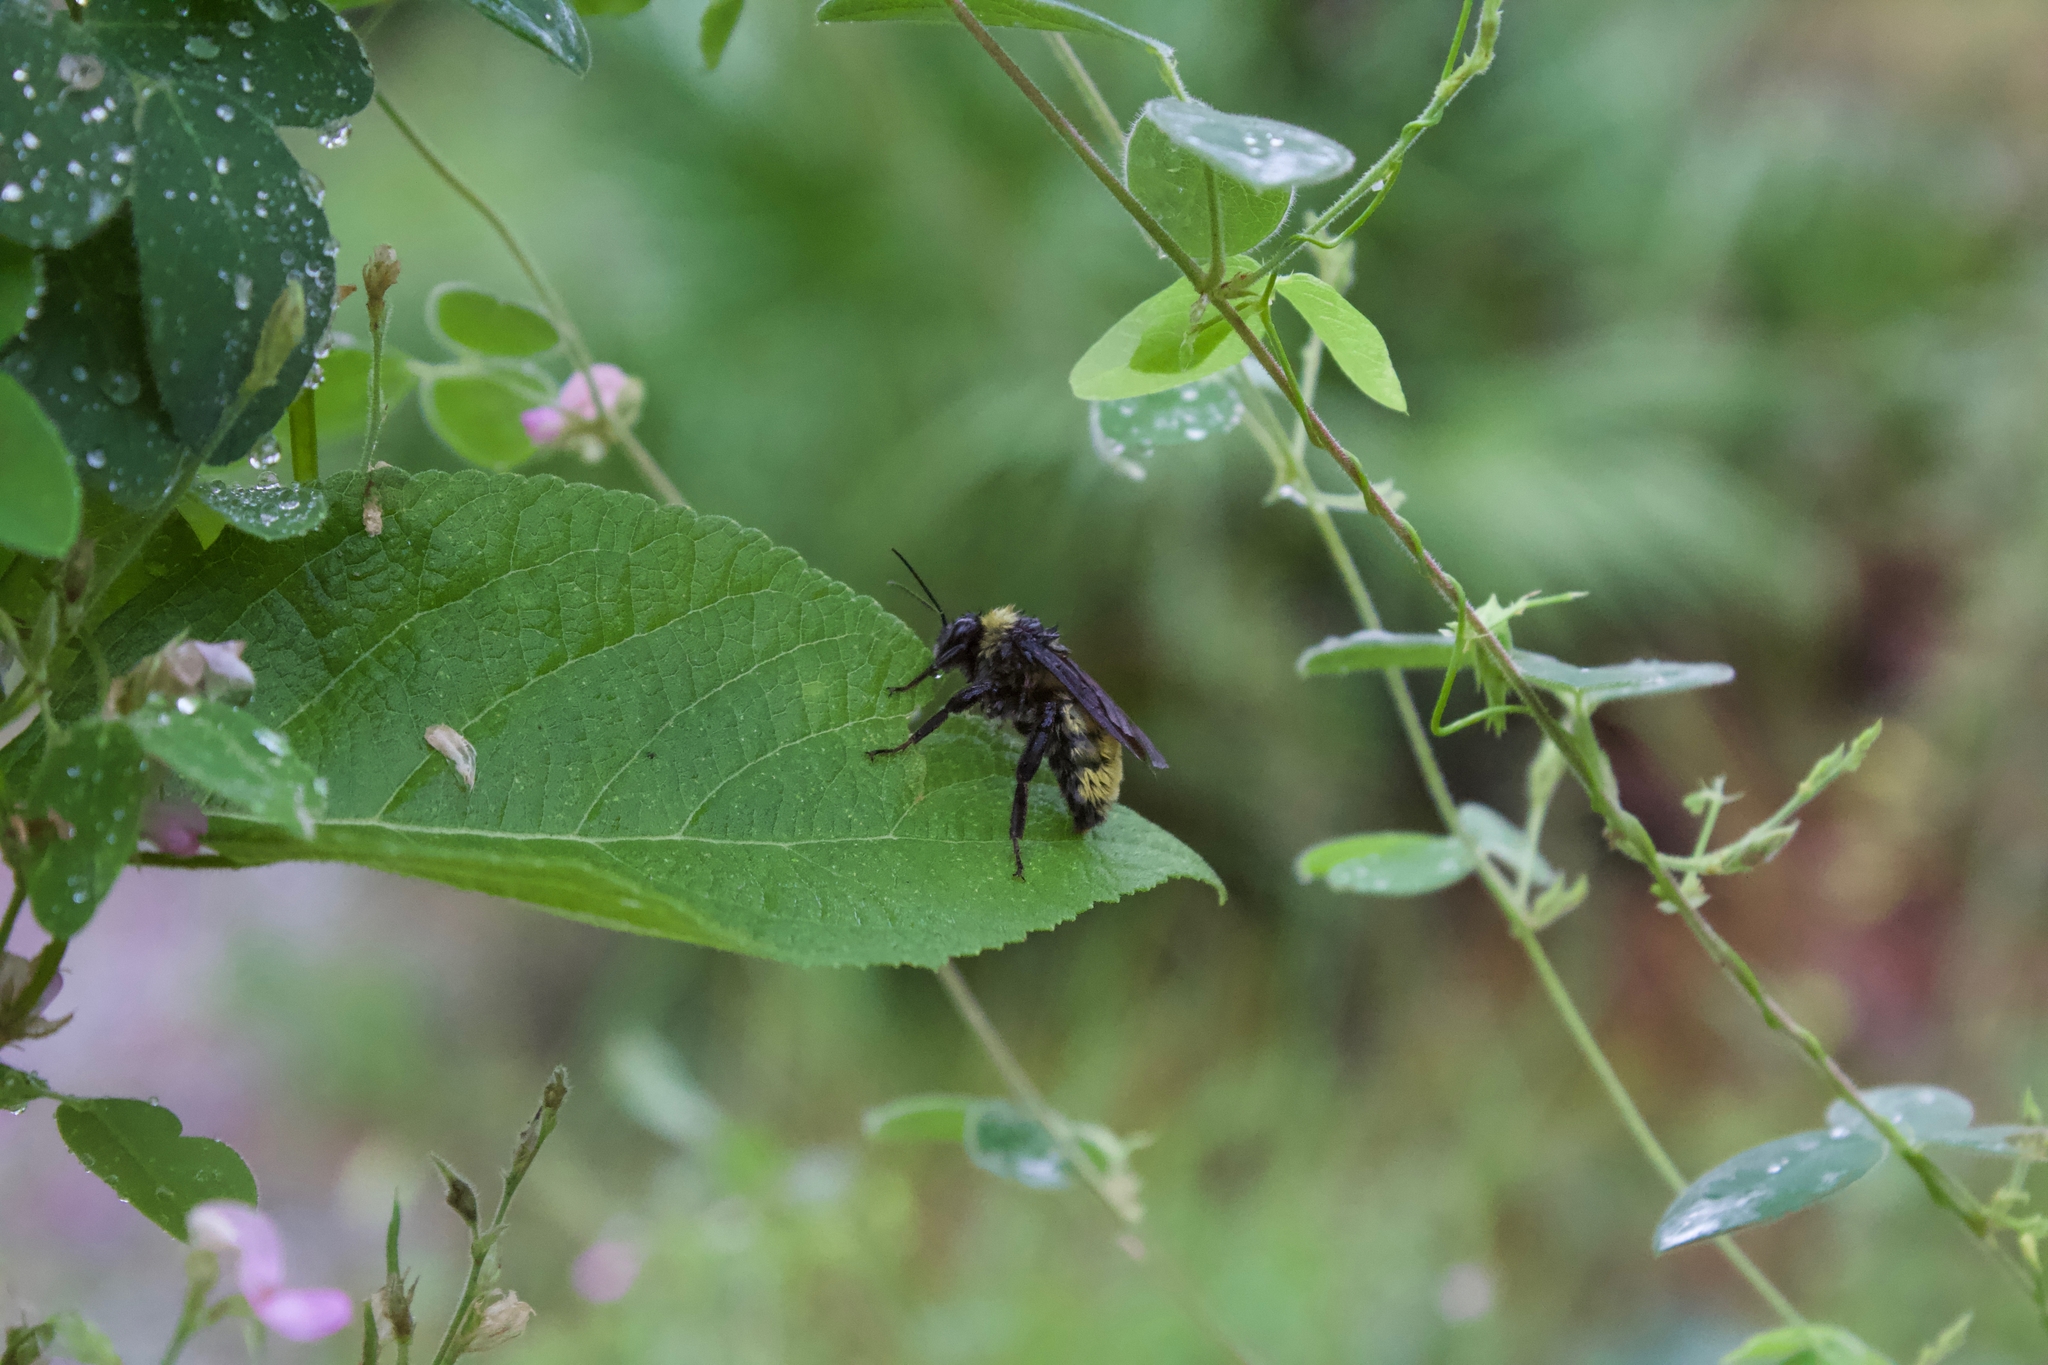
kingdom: Animalia
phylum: Arthropoda
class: Insecta
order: Hymenoptera
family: Apidae
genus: Bombus
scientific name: Bombus pensylvanicus
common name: Bumble bee
